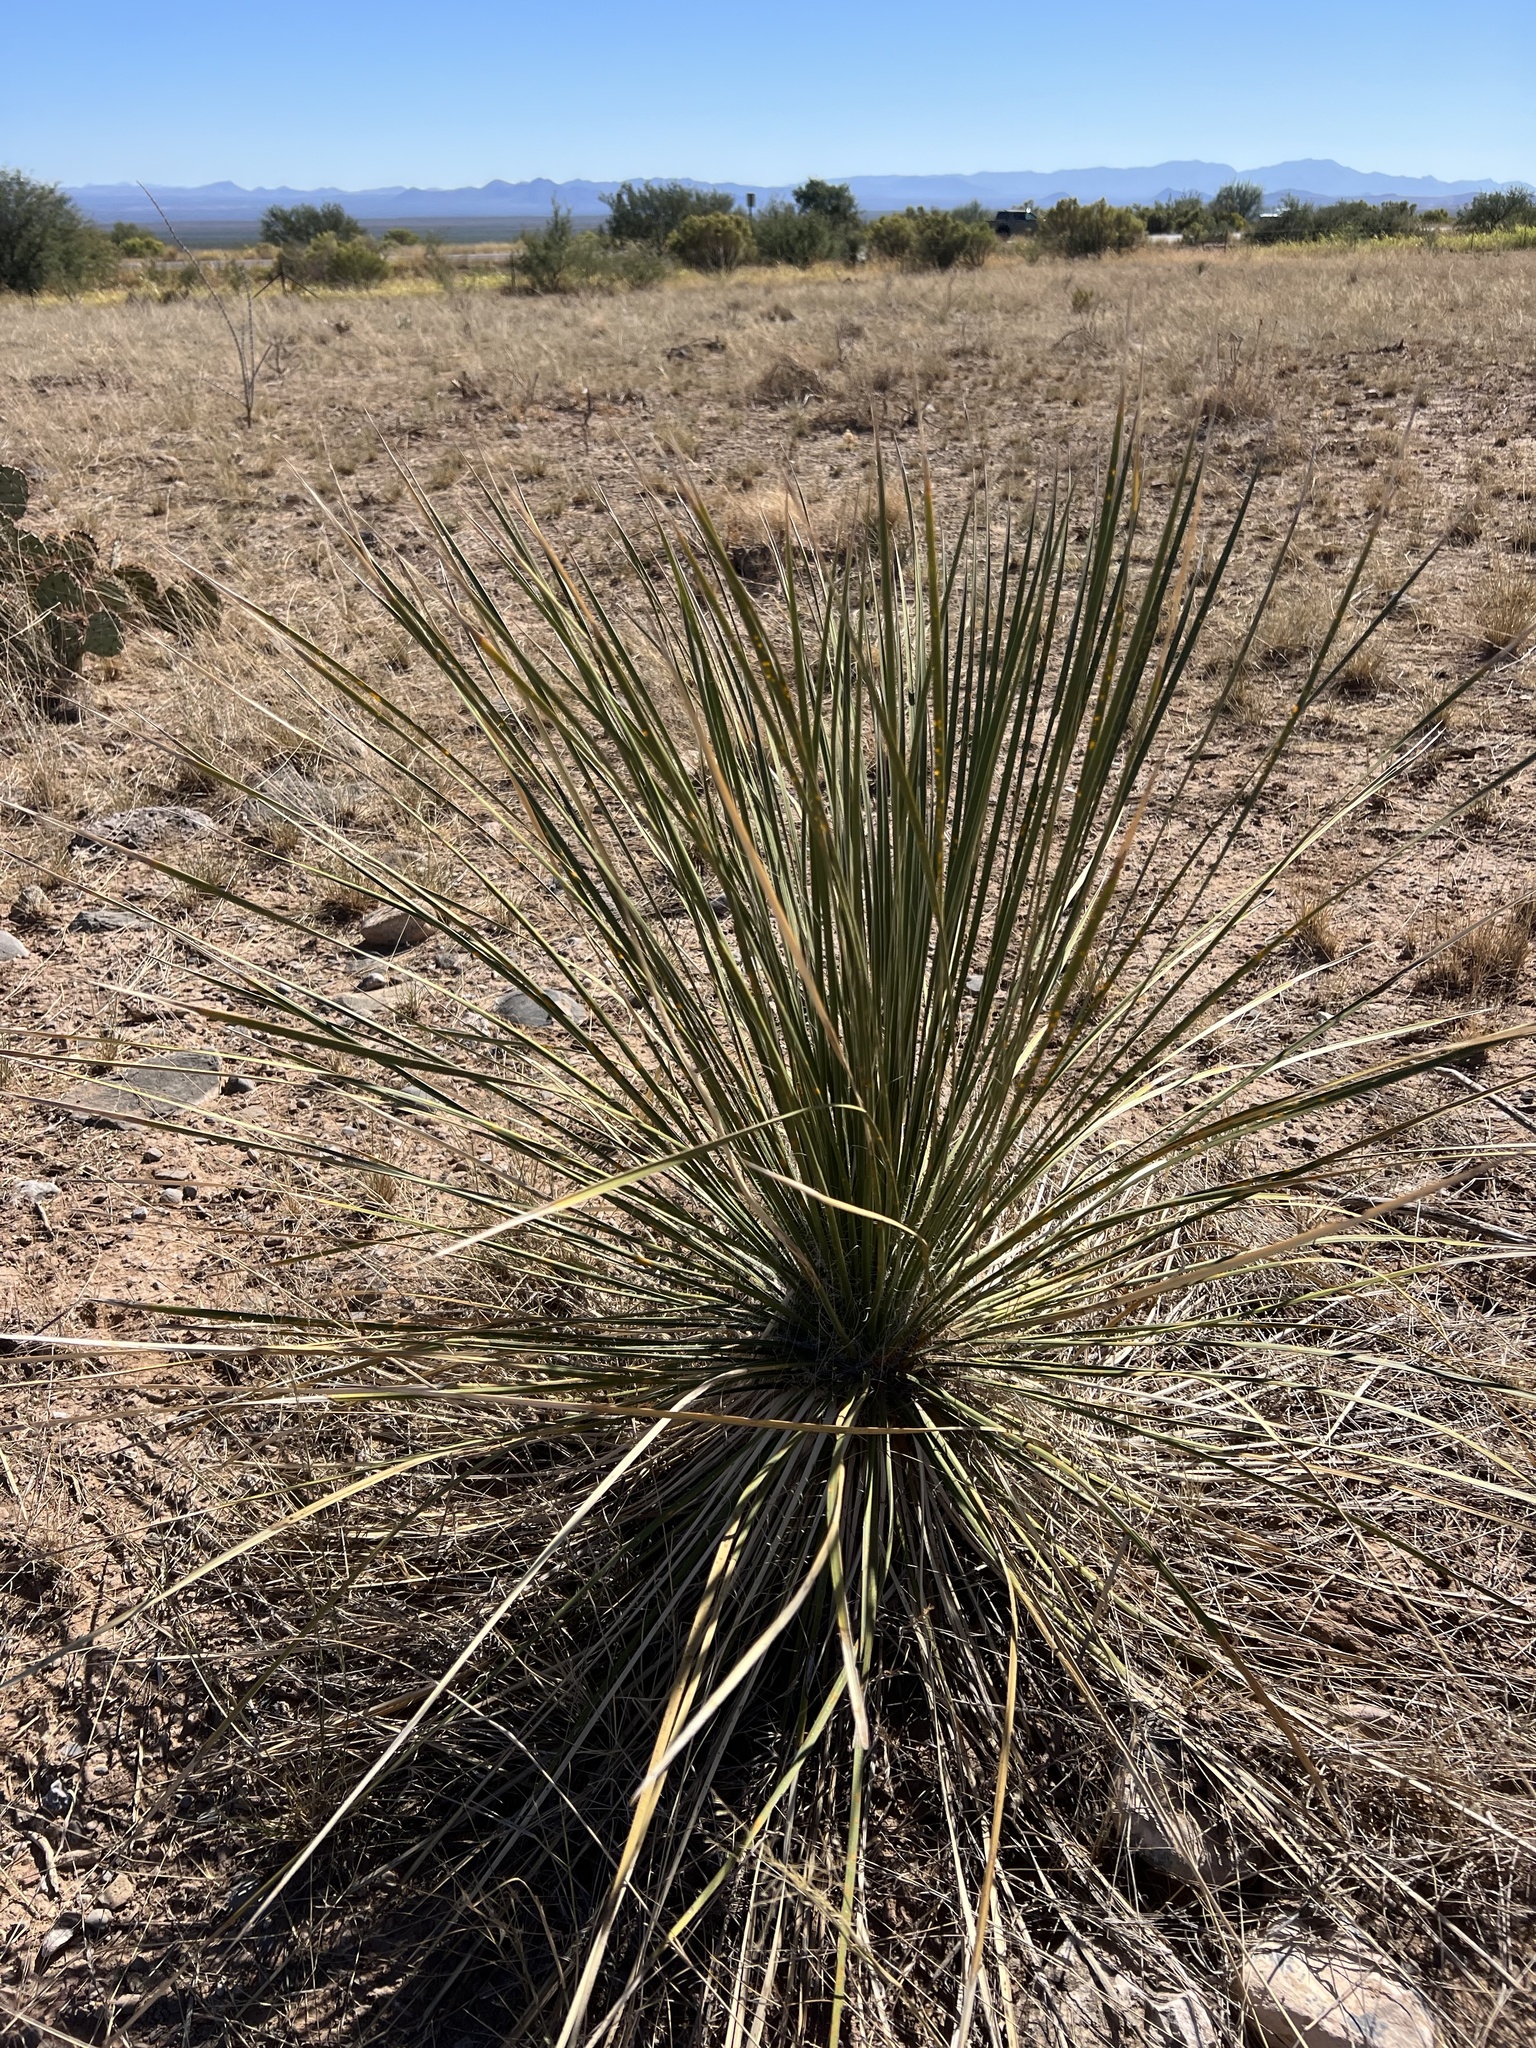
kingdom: Plantae
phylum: Tracheophyta
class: Liliopsida
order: Asparagales
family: Asparagaceae
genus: Yucca
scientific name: Yucca elata
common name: Palmella
